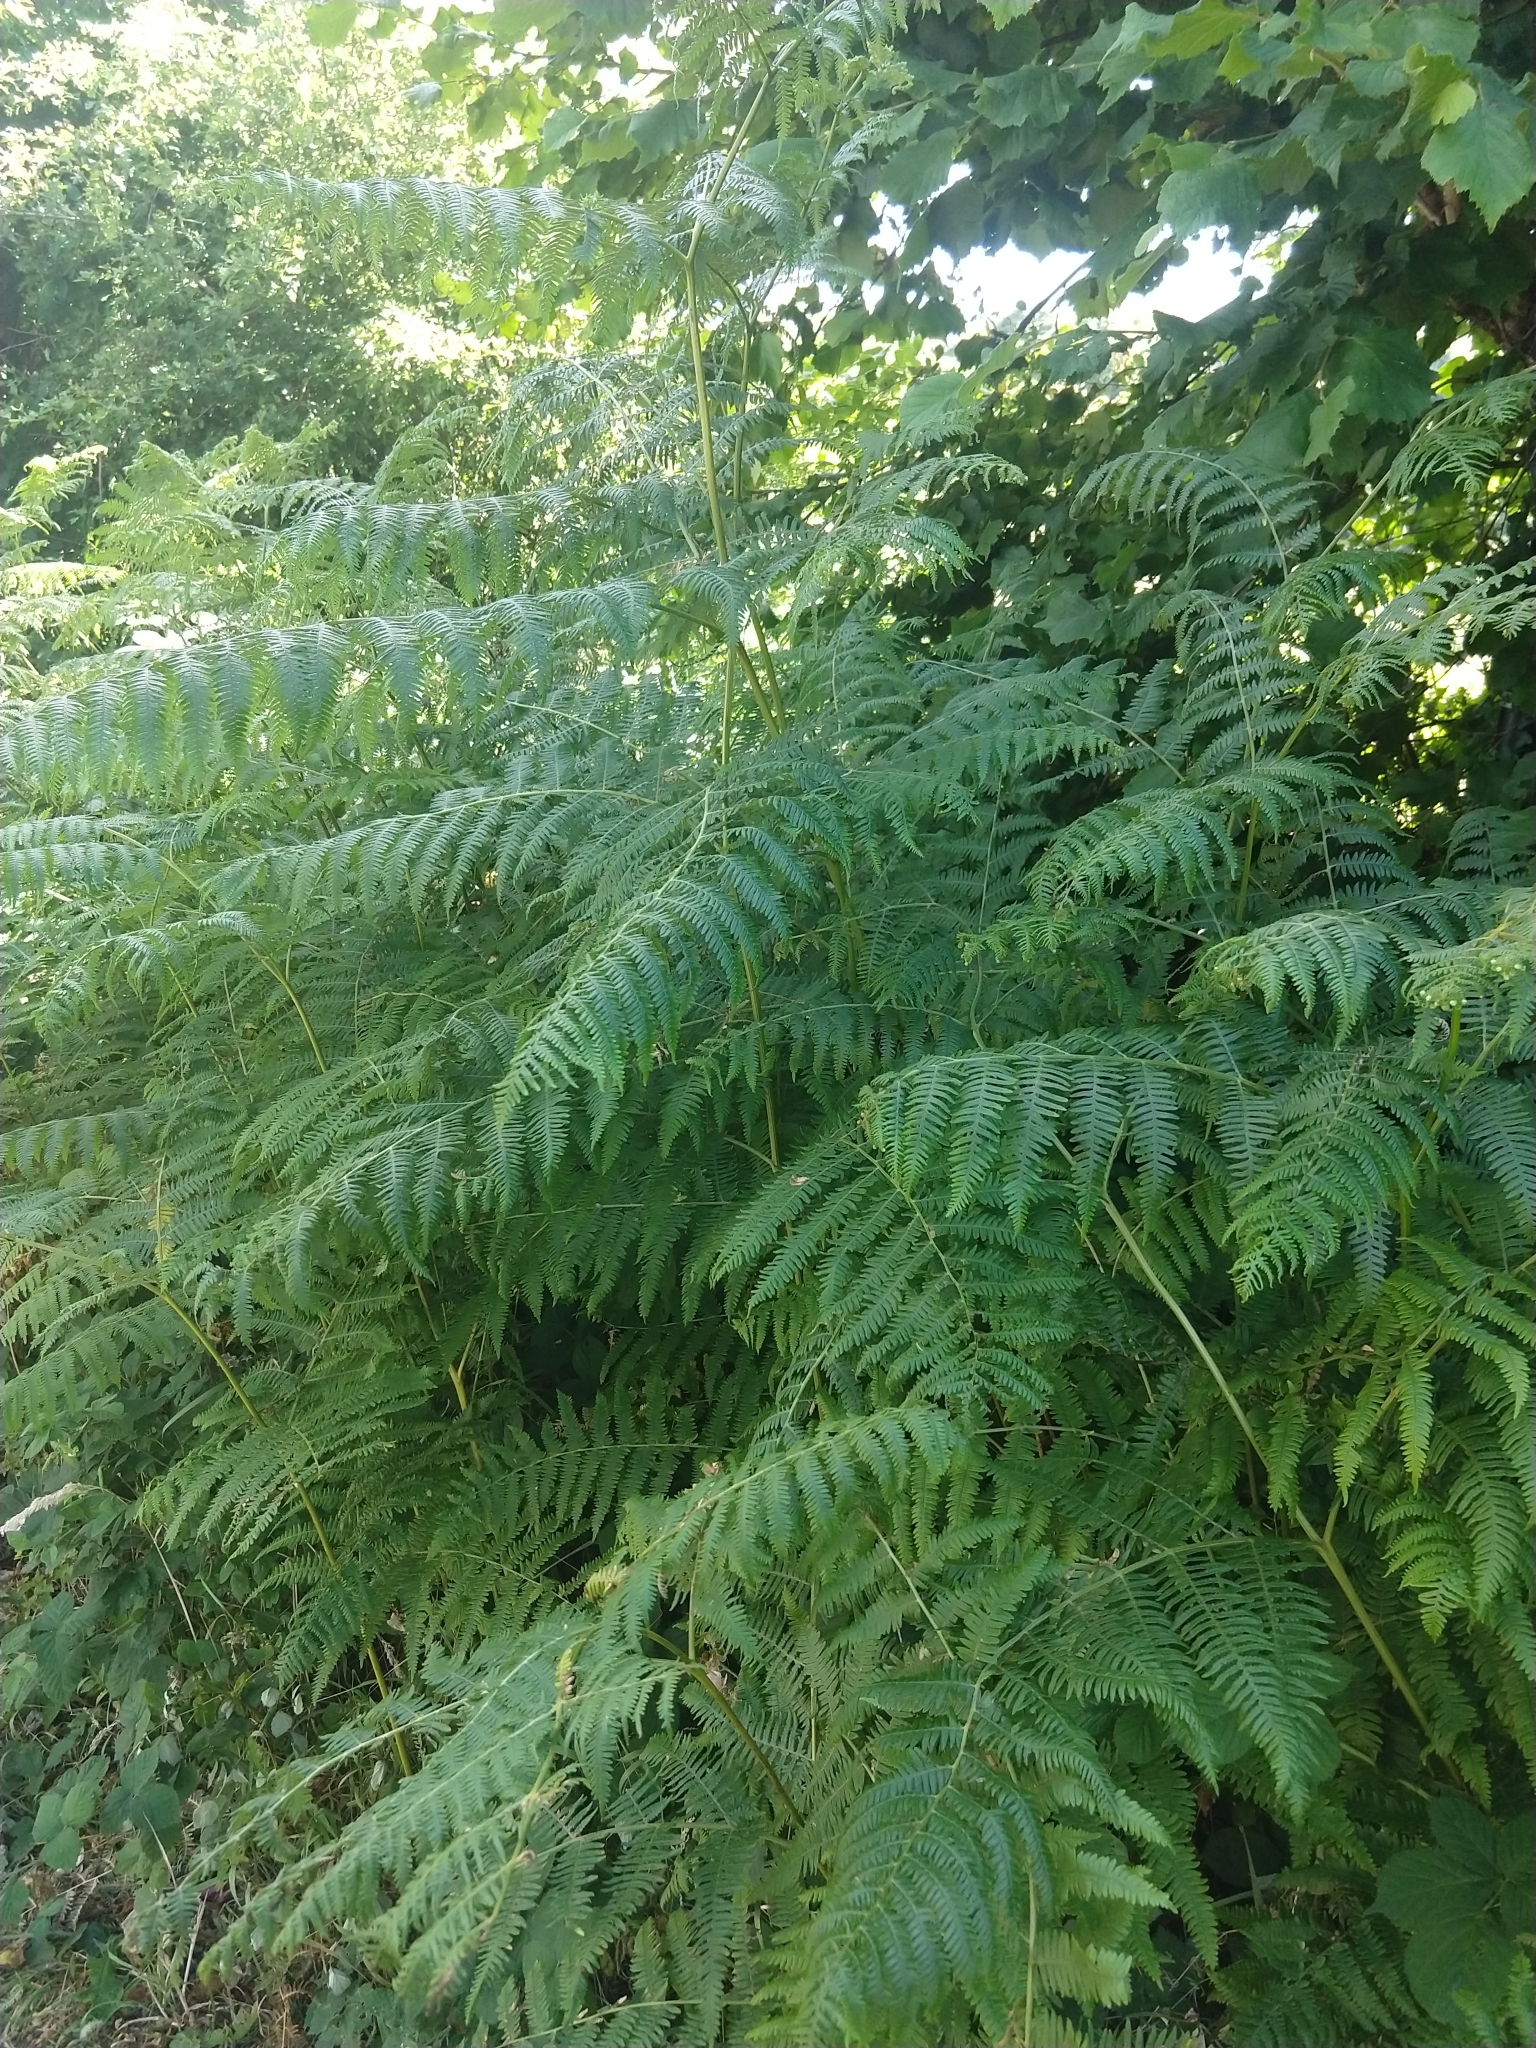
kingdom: Plantae
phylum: Tracheophyta
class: Polypodiopsida
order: Polypodiales
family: Dennstaedtiaceae
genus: Pteridium
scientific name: Pteridium aquilinum
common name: Bracken
